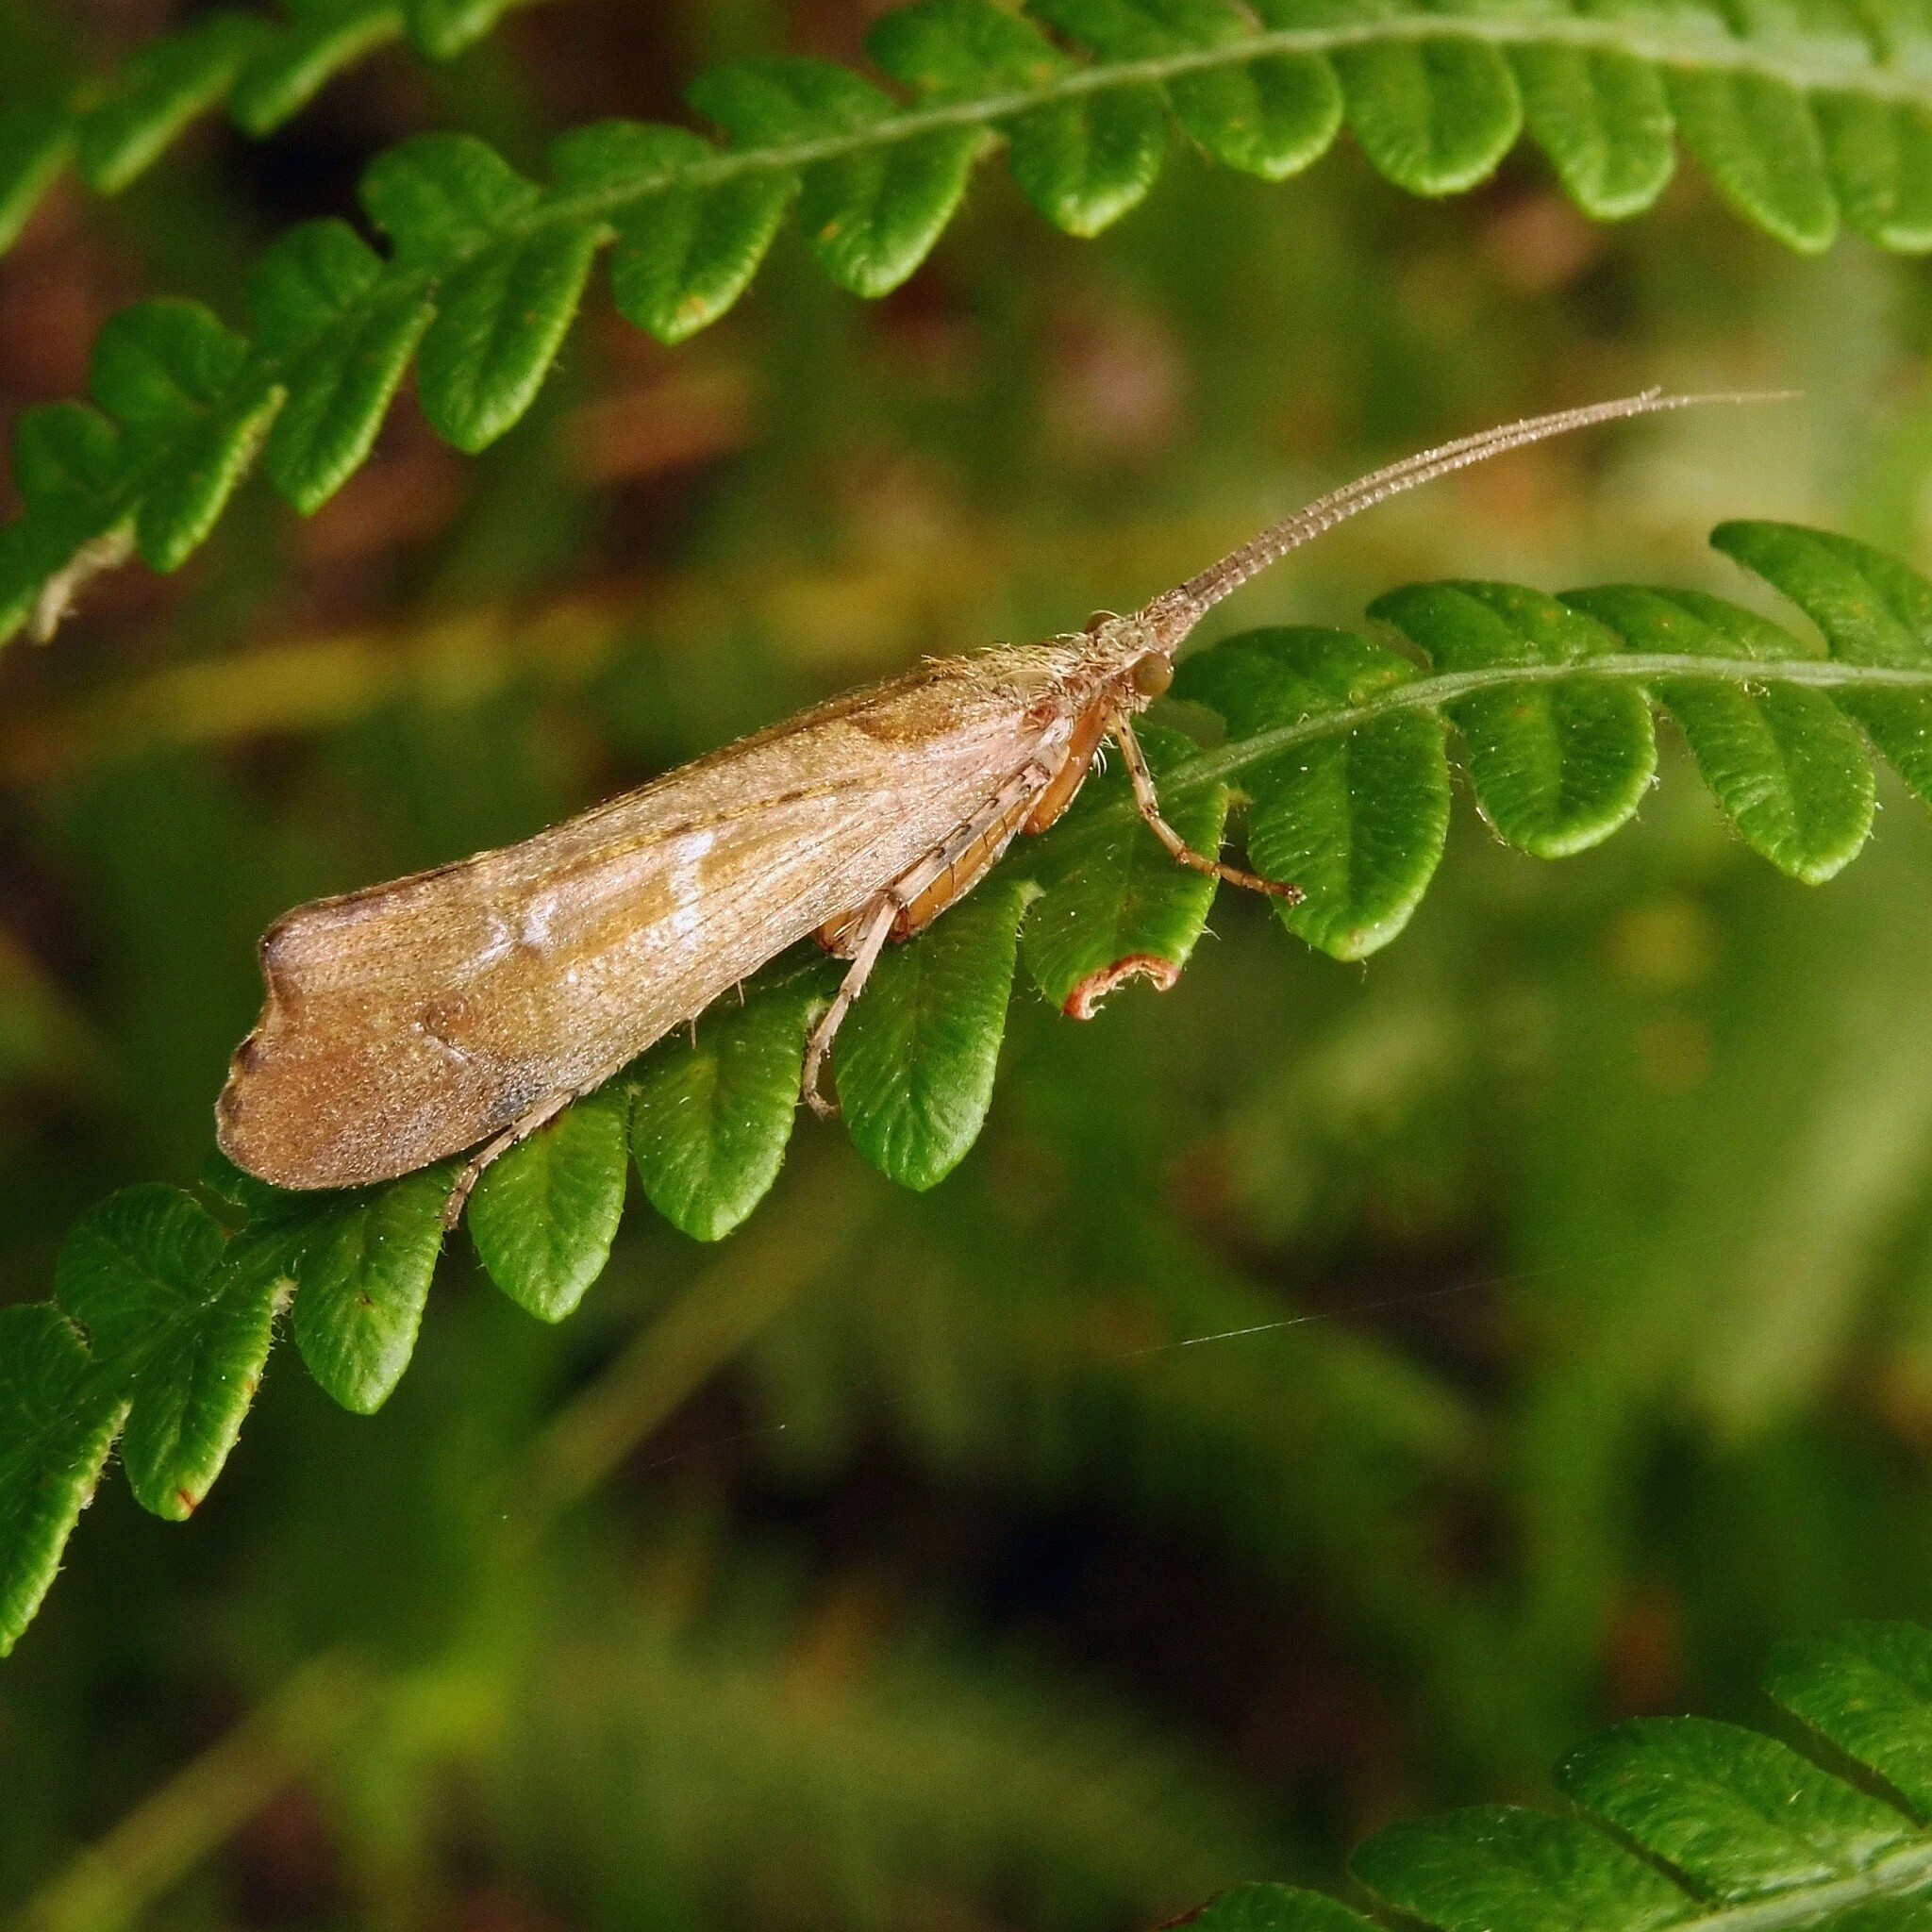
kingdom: Animalia
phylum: Arthropoda
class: Insecta
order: Trichoptera
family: Limnephilidae
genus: Glyphotaelius
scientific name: Glyphotaelius pellucidus
